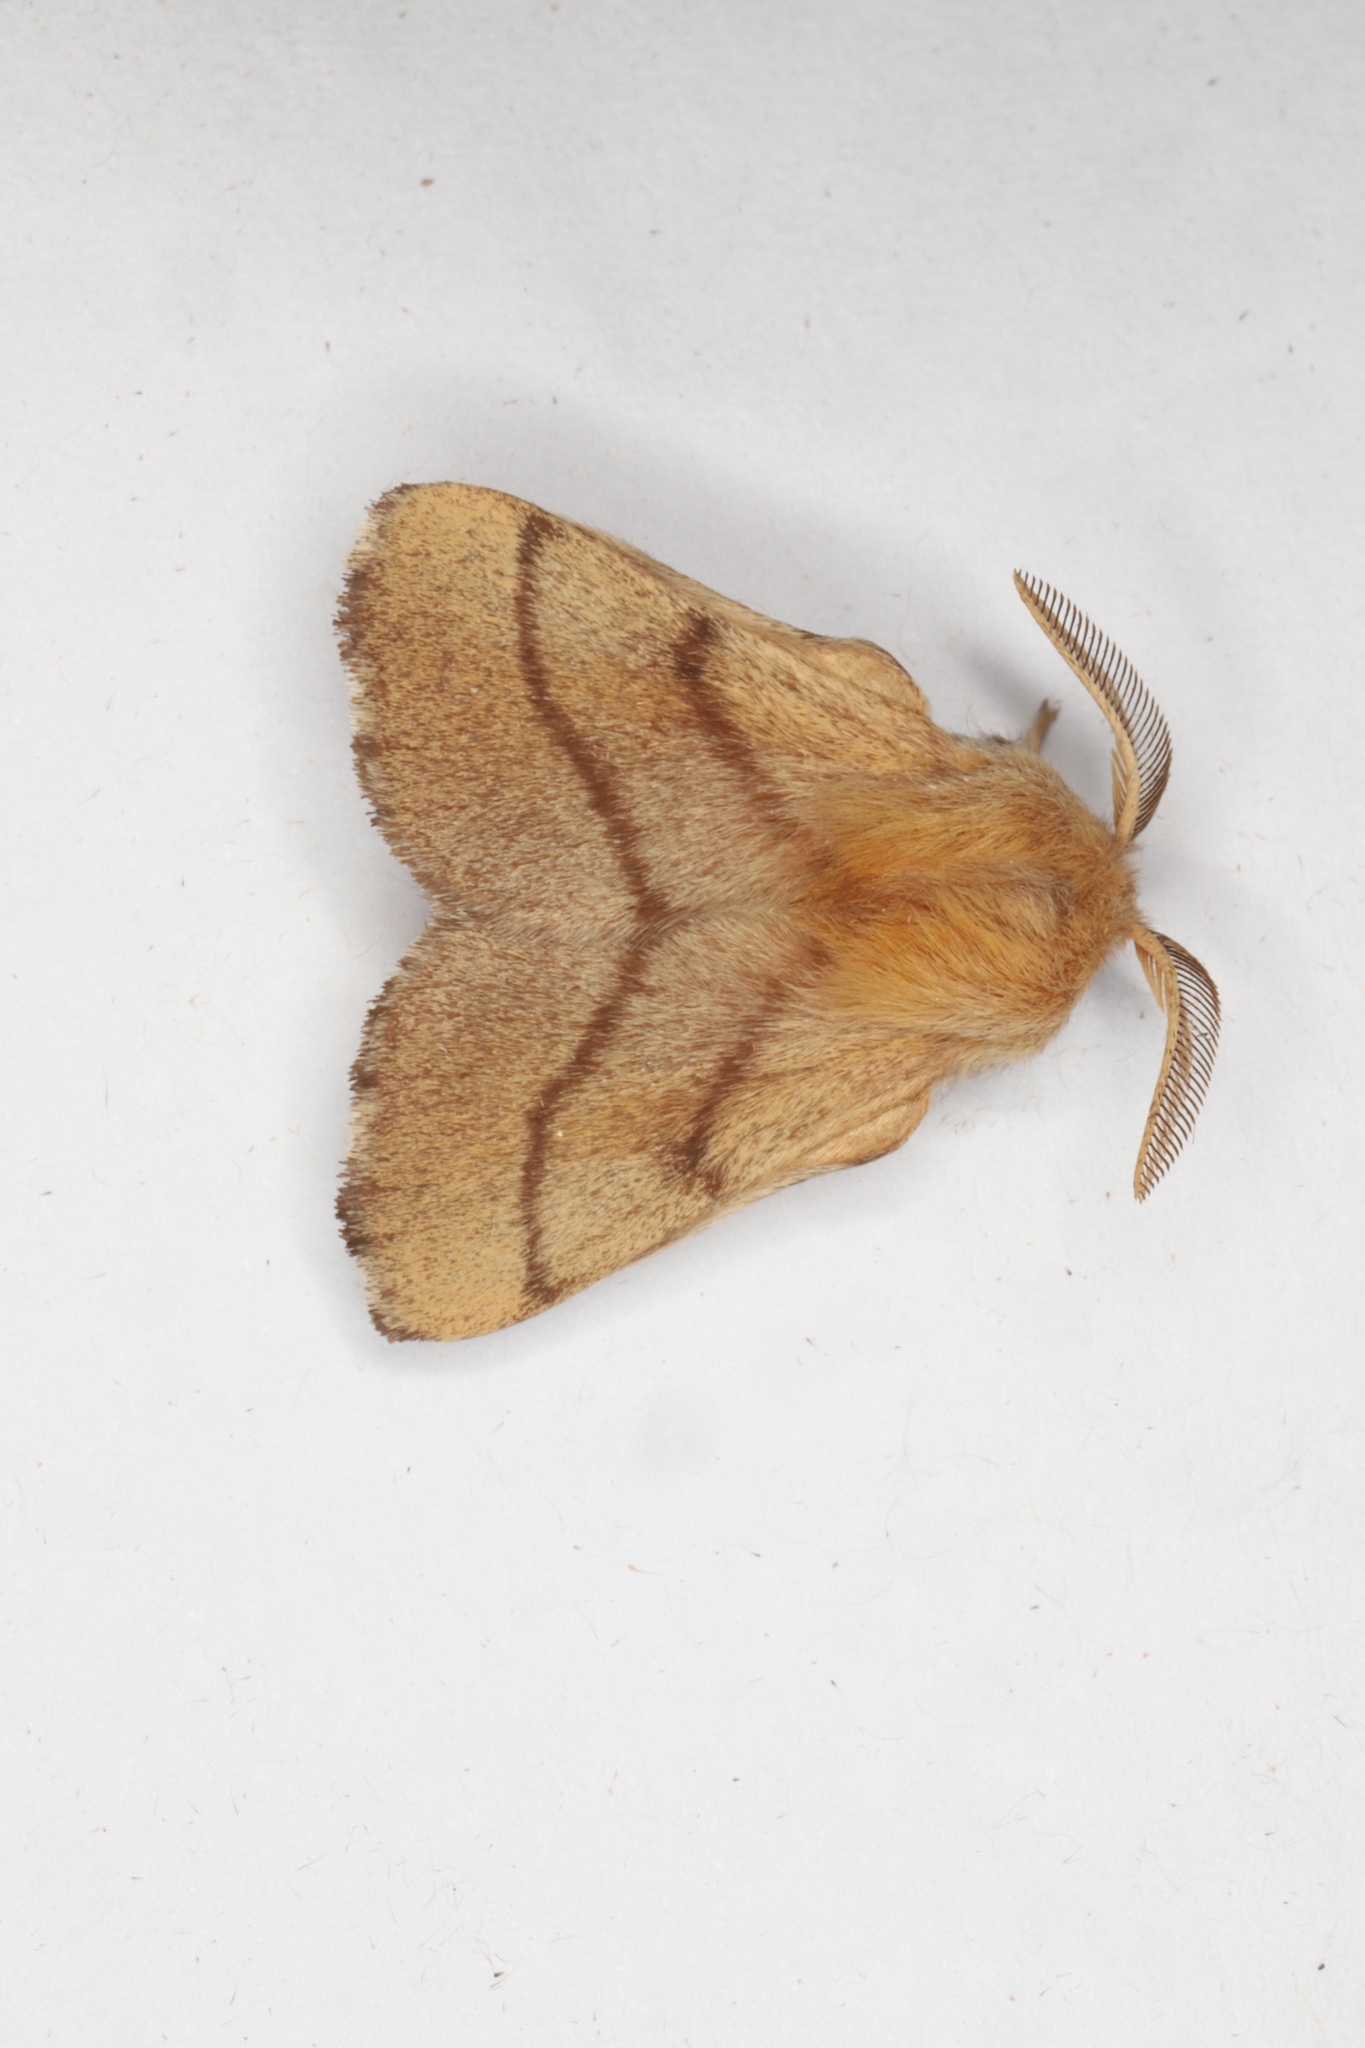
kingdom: Animalia
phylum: Arthropoda
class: Insecta
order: Lepidoptera
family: Lasiocampidae
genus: Malacosoma
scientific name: Malacosoma disstria
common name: Forest tent caterpillar
